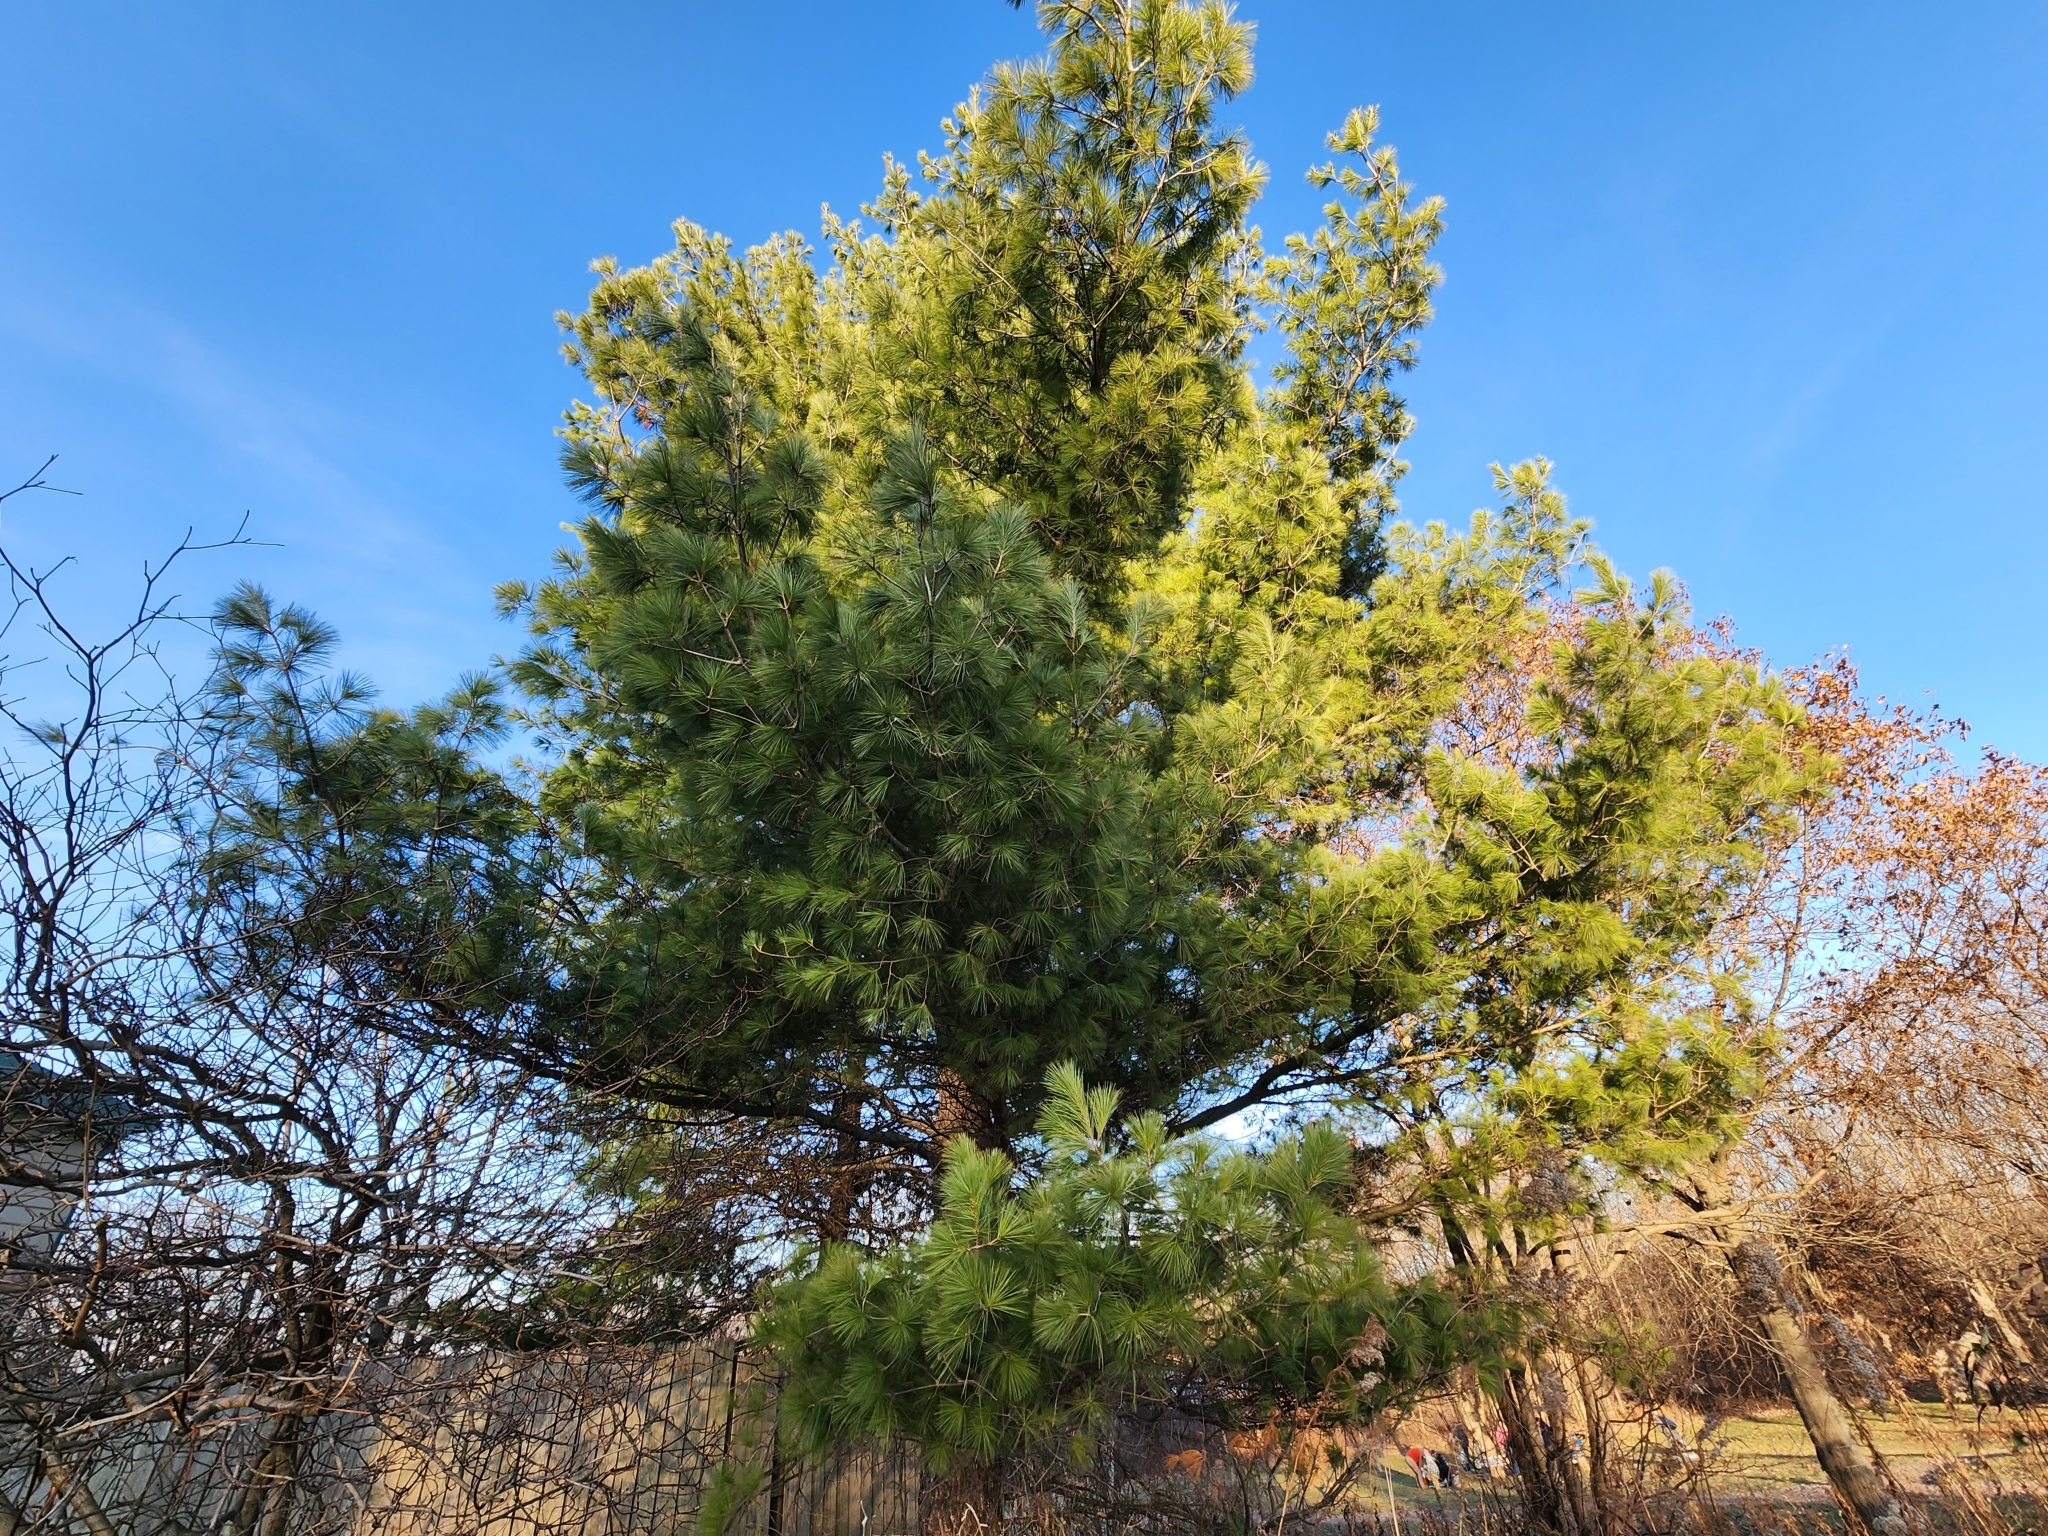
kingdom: Plantae
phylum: Tracheophyta
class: Pinopsida
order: Pinales
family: Pinaceae
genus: Pinus
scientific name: Pinus strobus
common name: Weymouth pine
